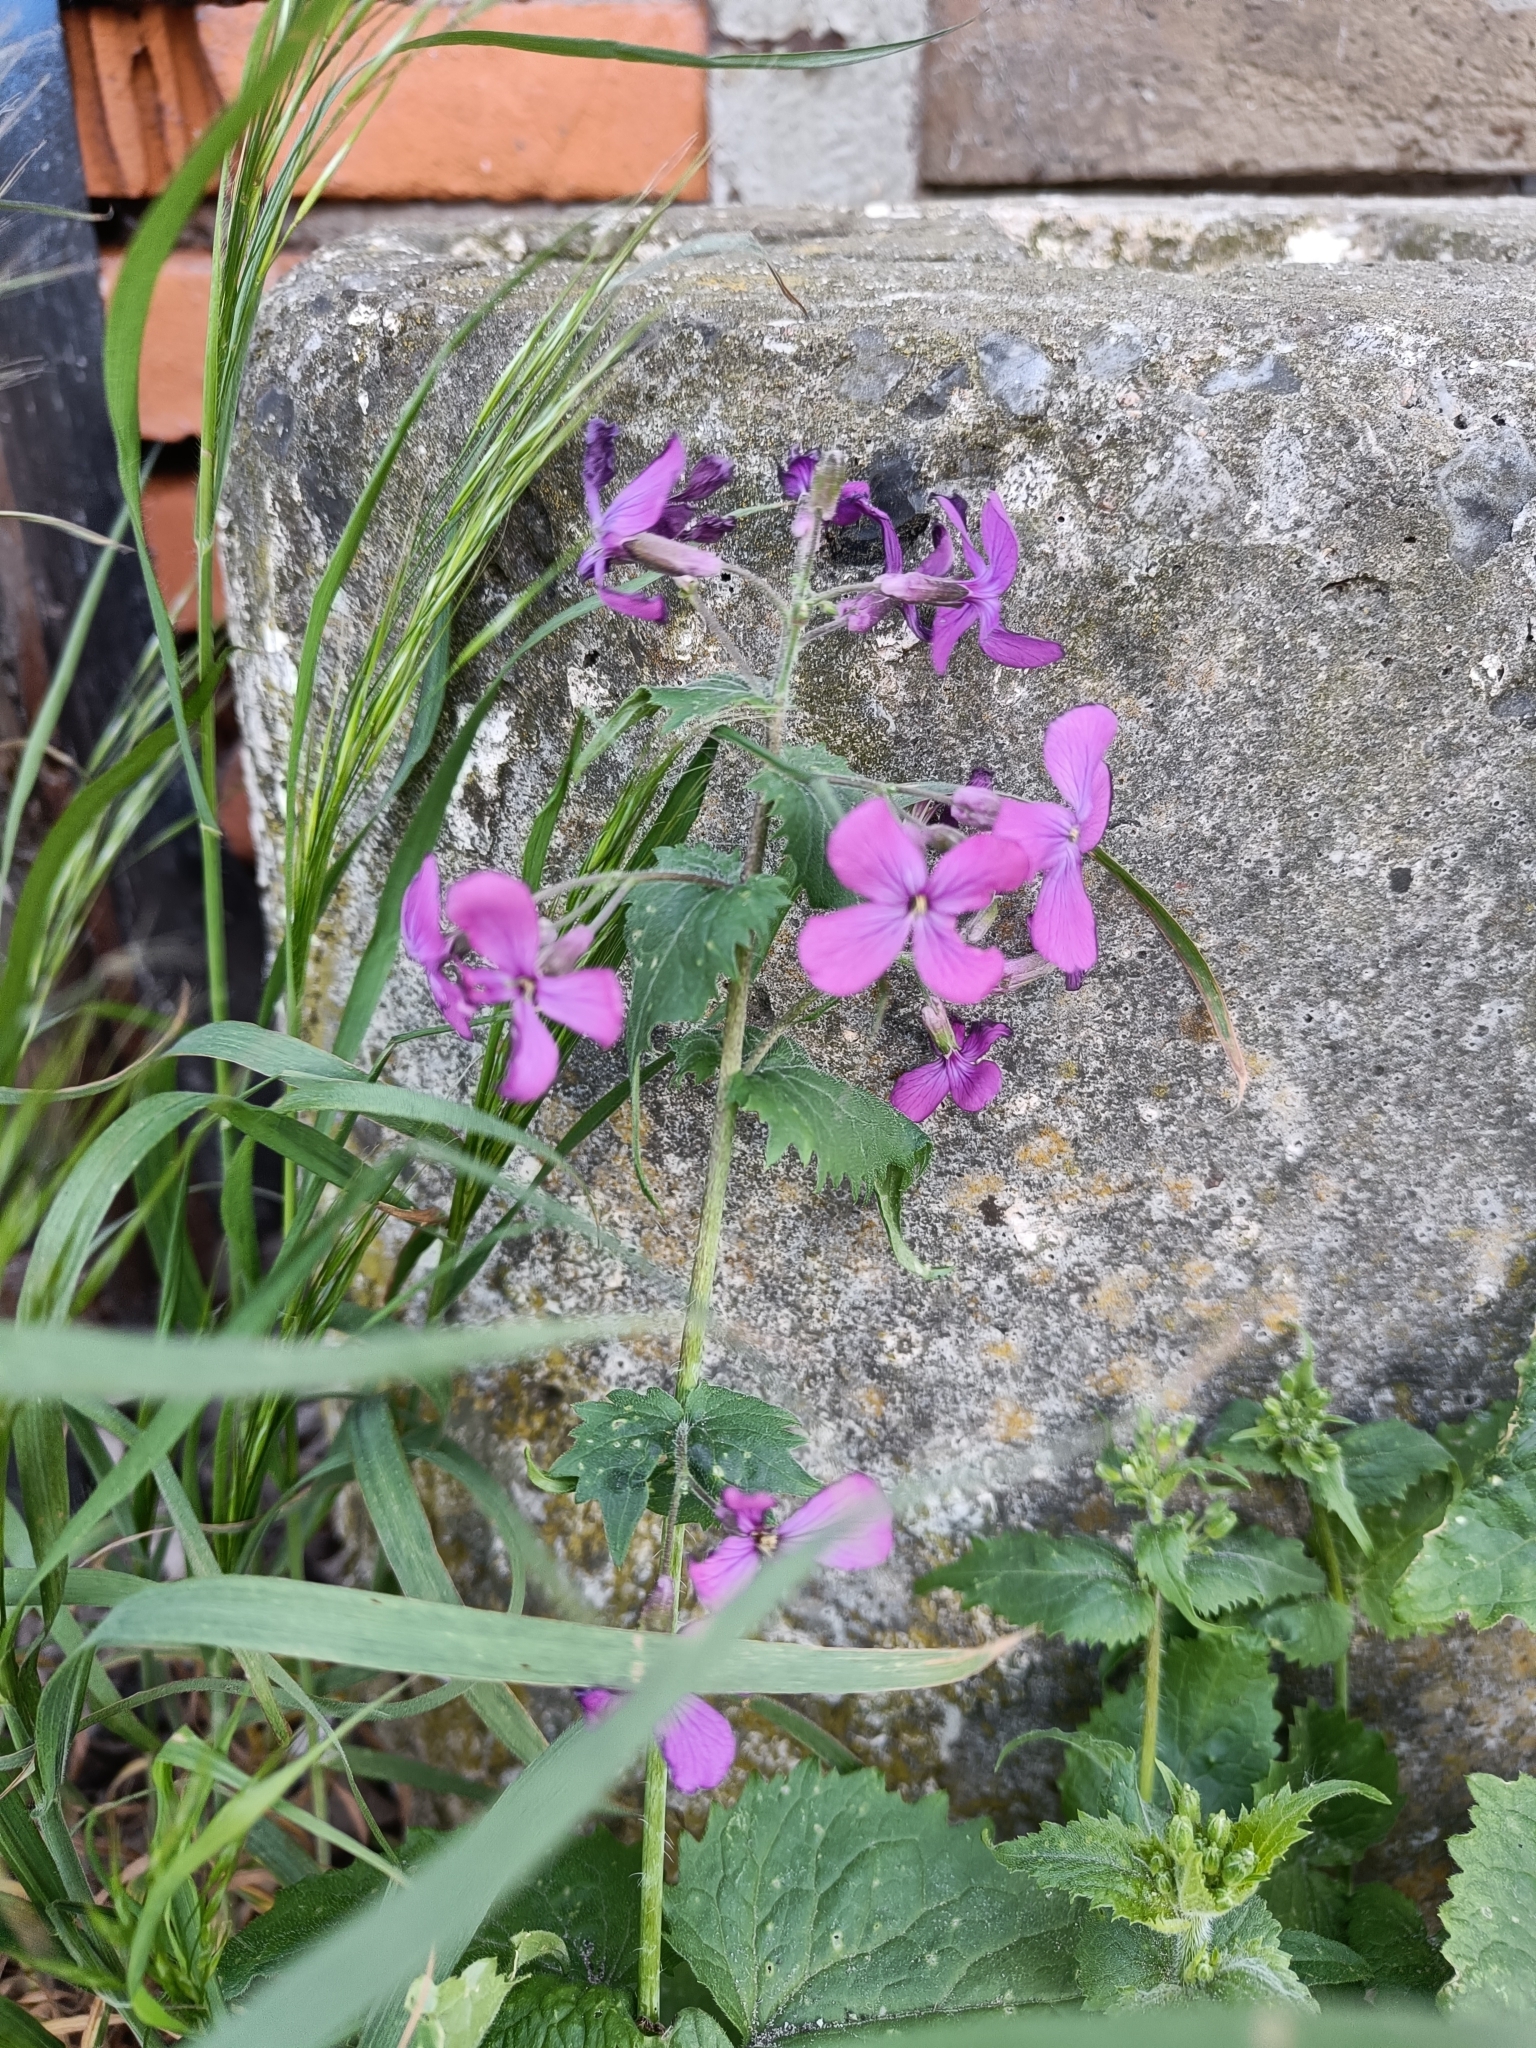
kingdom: Plantae
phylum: Tracheophyta
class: Magnoliopsida
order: Brassicales
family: Brassicaceae
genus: Lunaria
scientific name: Lunaria annua
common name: Honesty
